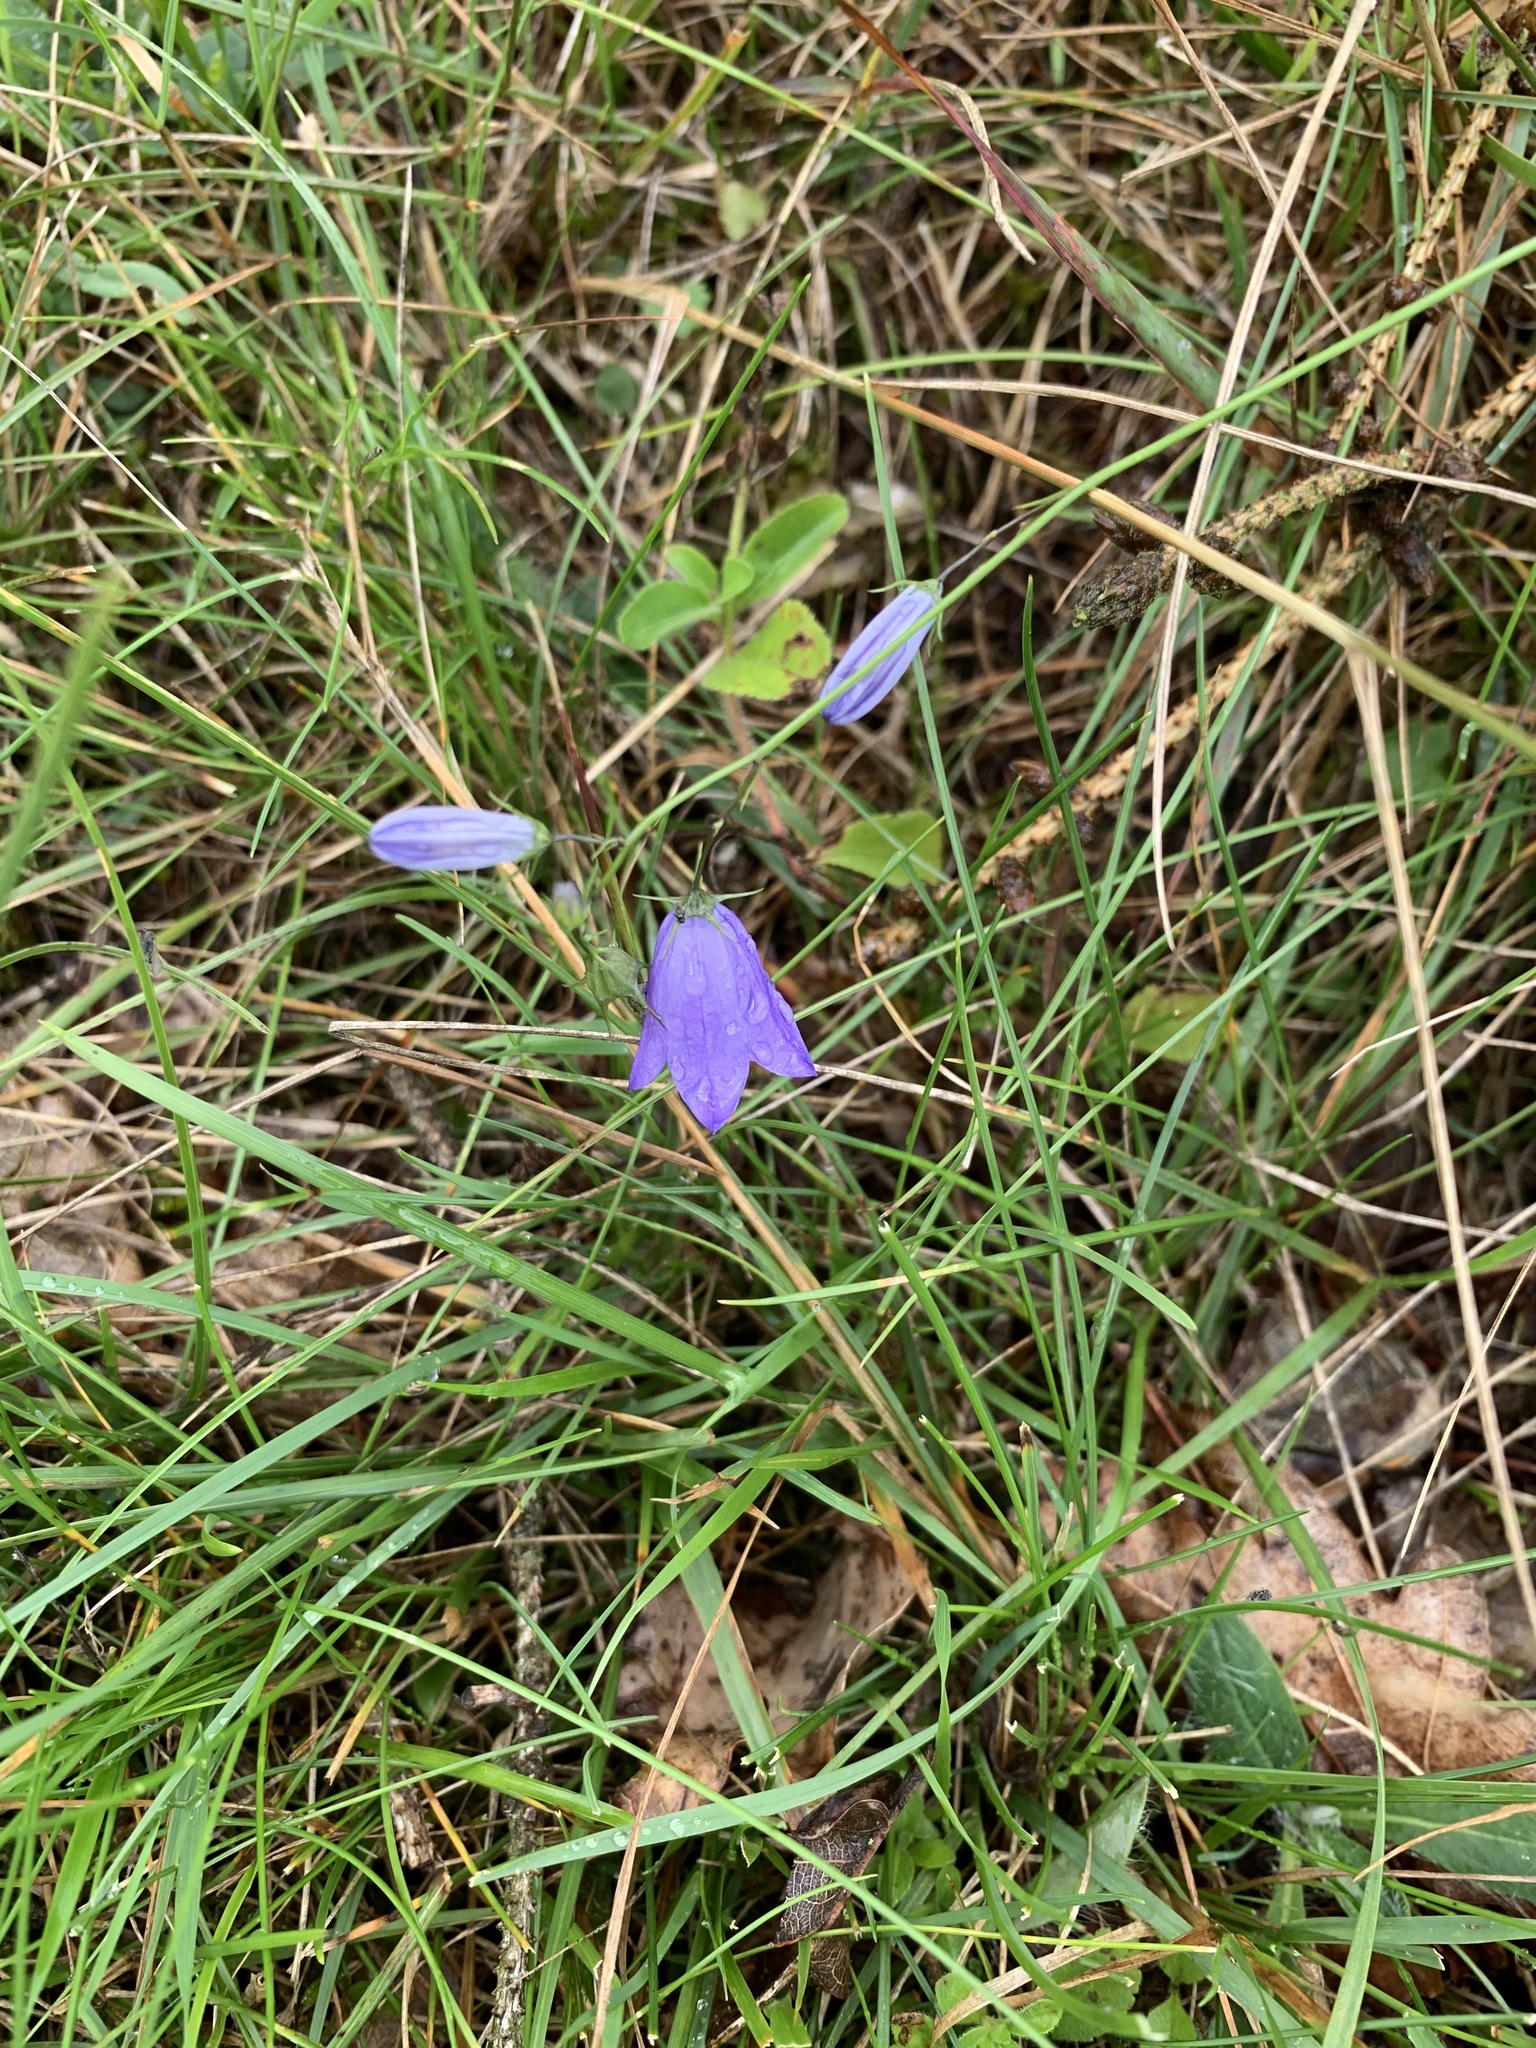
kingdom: Plantae
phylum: Tracheophyta
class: Magnoliopsida
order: Asterales
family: Campanulaceae
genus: Campanula
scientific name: Campanula rotundifolia
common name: Harebell
